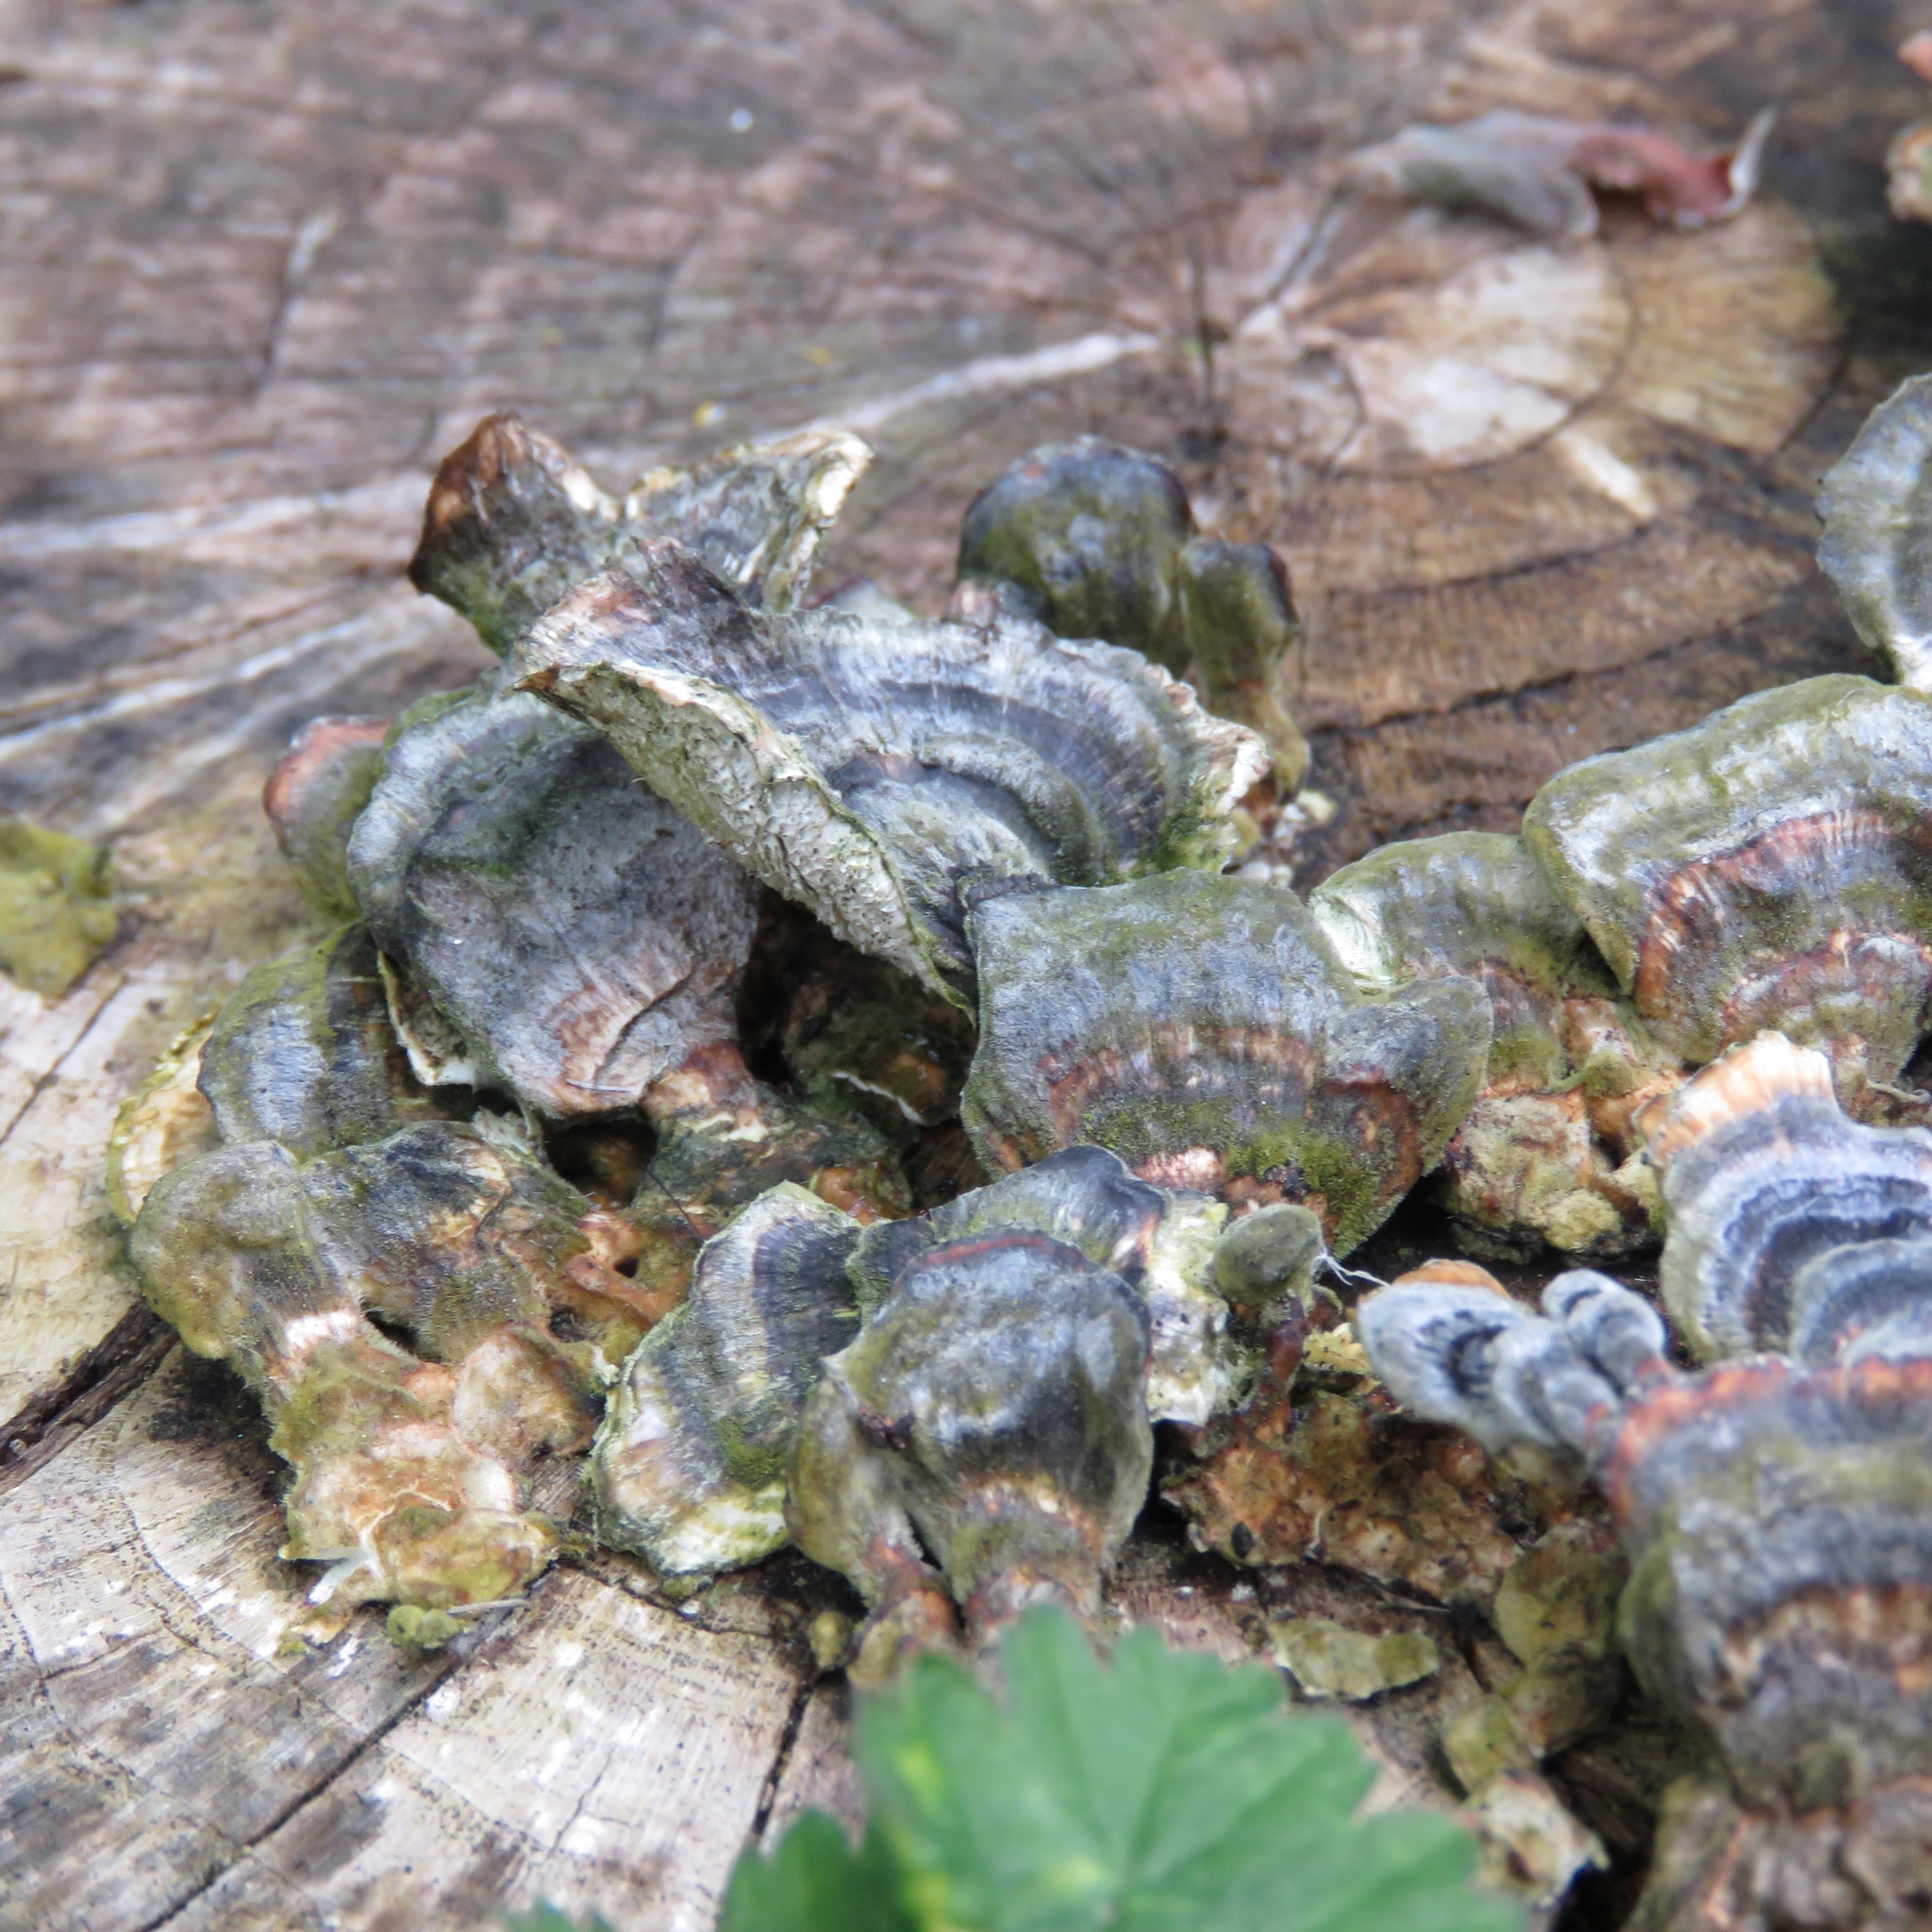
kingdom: Fungi
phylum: Basidiomycota
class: Agaricomycetes
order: Polyporales
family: Polyporaceae
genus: Trametes
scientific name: Trametes versicolor
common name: Turkeytail
